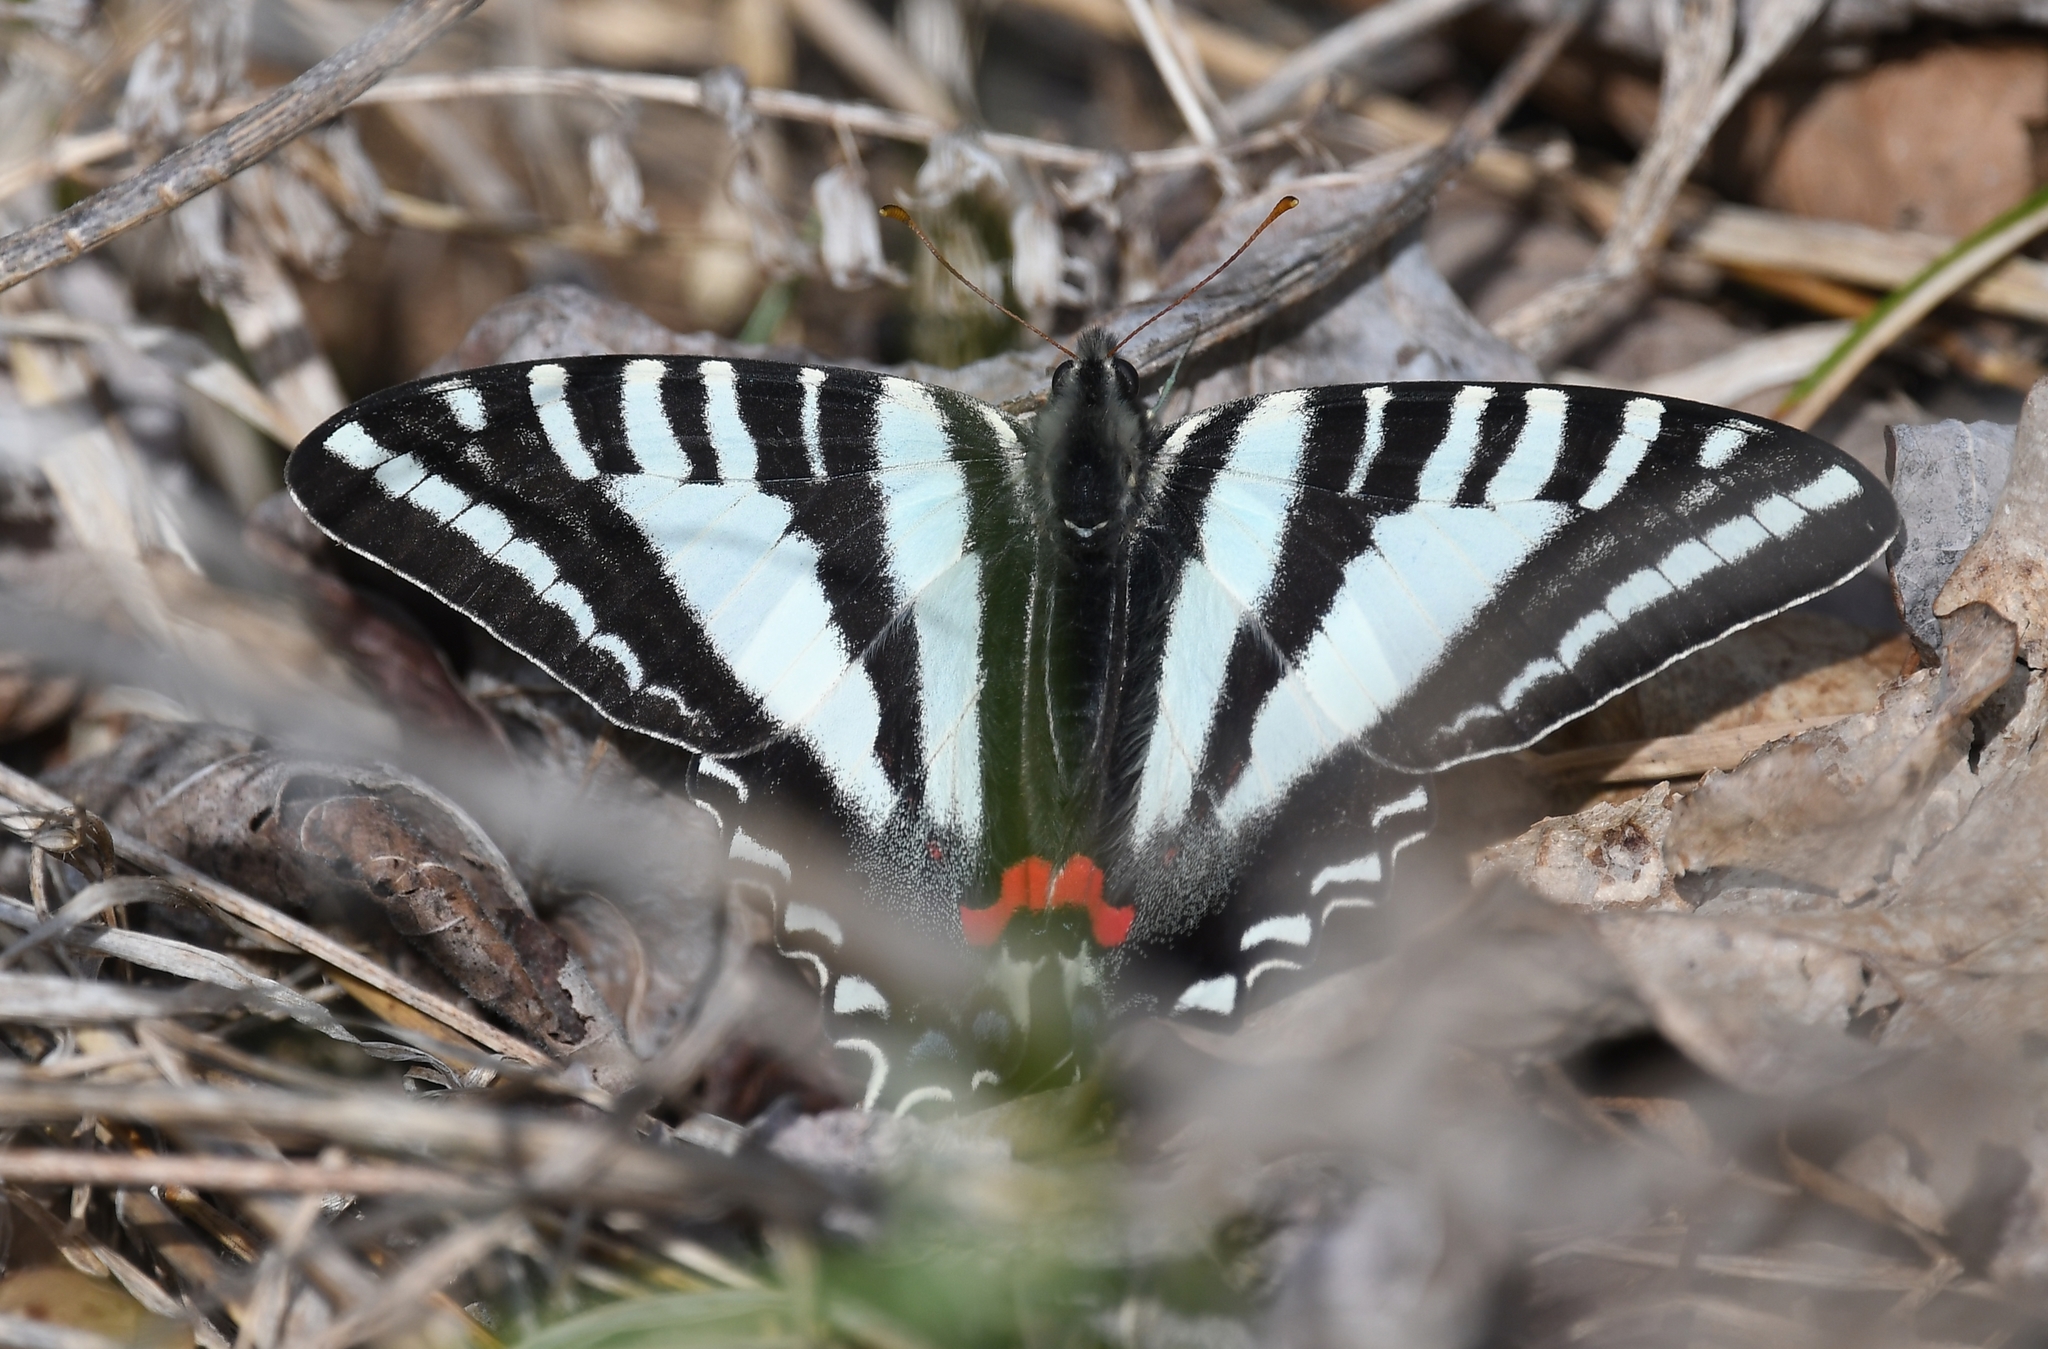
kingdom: Animalia
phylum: Arthropoda
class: Insecta
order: Lepidoptera
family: Papilionidae
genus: Protographium
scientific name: Protographium marcellus
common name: Zebra swallowtail
